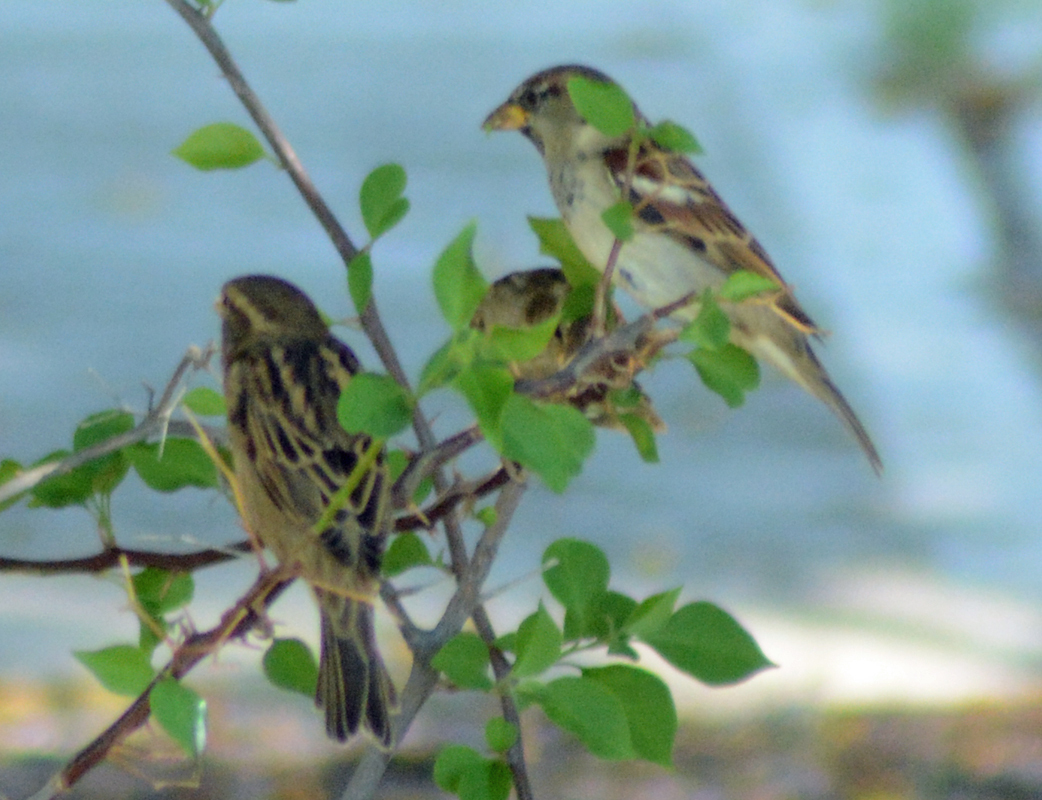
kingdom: Animalia
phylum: Chordata
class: Aves
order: Passeriformes
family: Passeridae
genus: Passer
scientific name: Passer domesticus
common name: House sparrow
